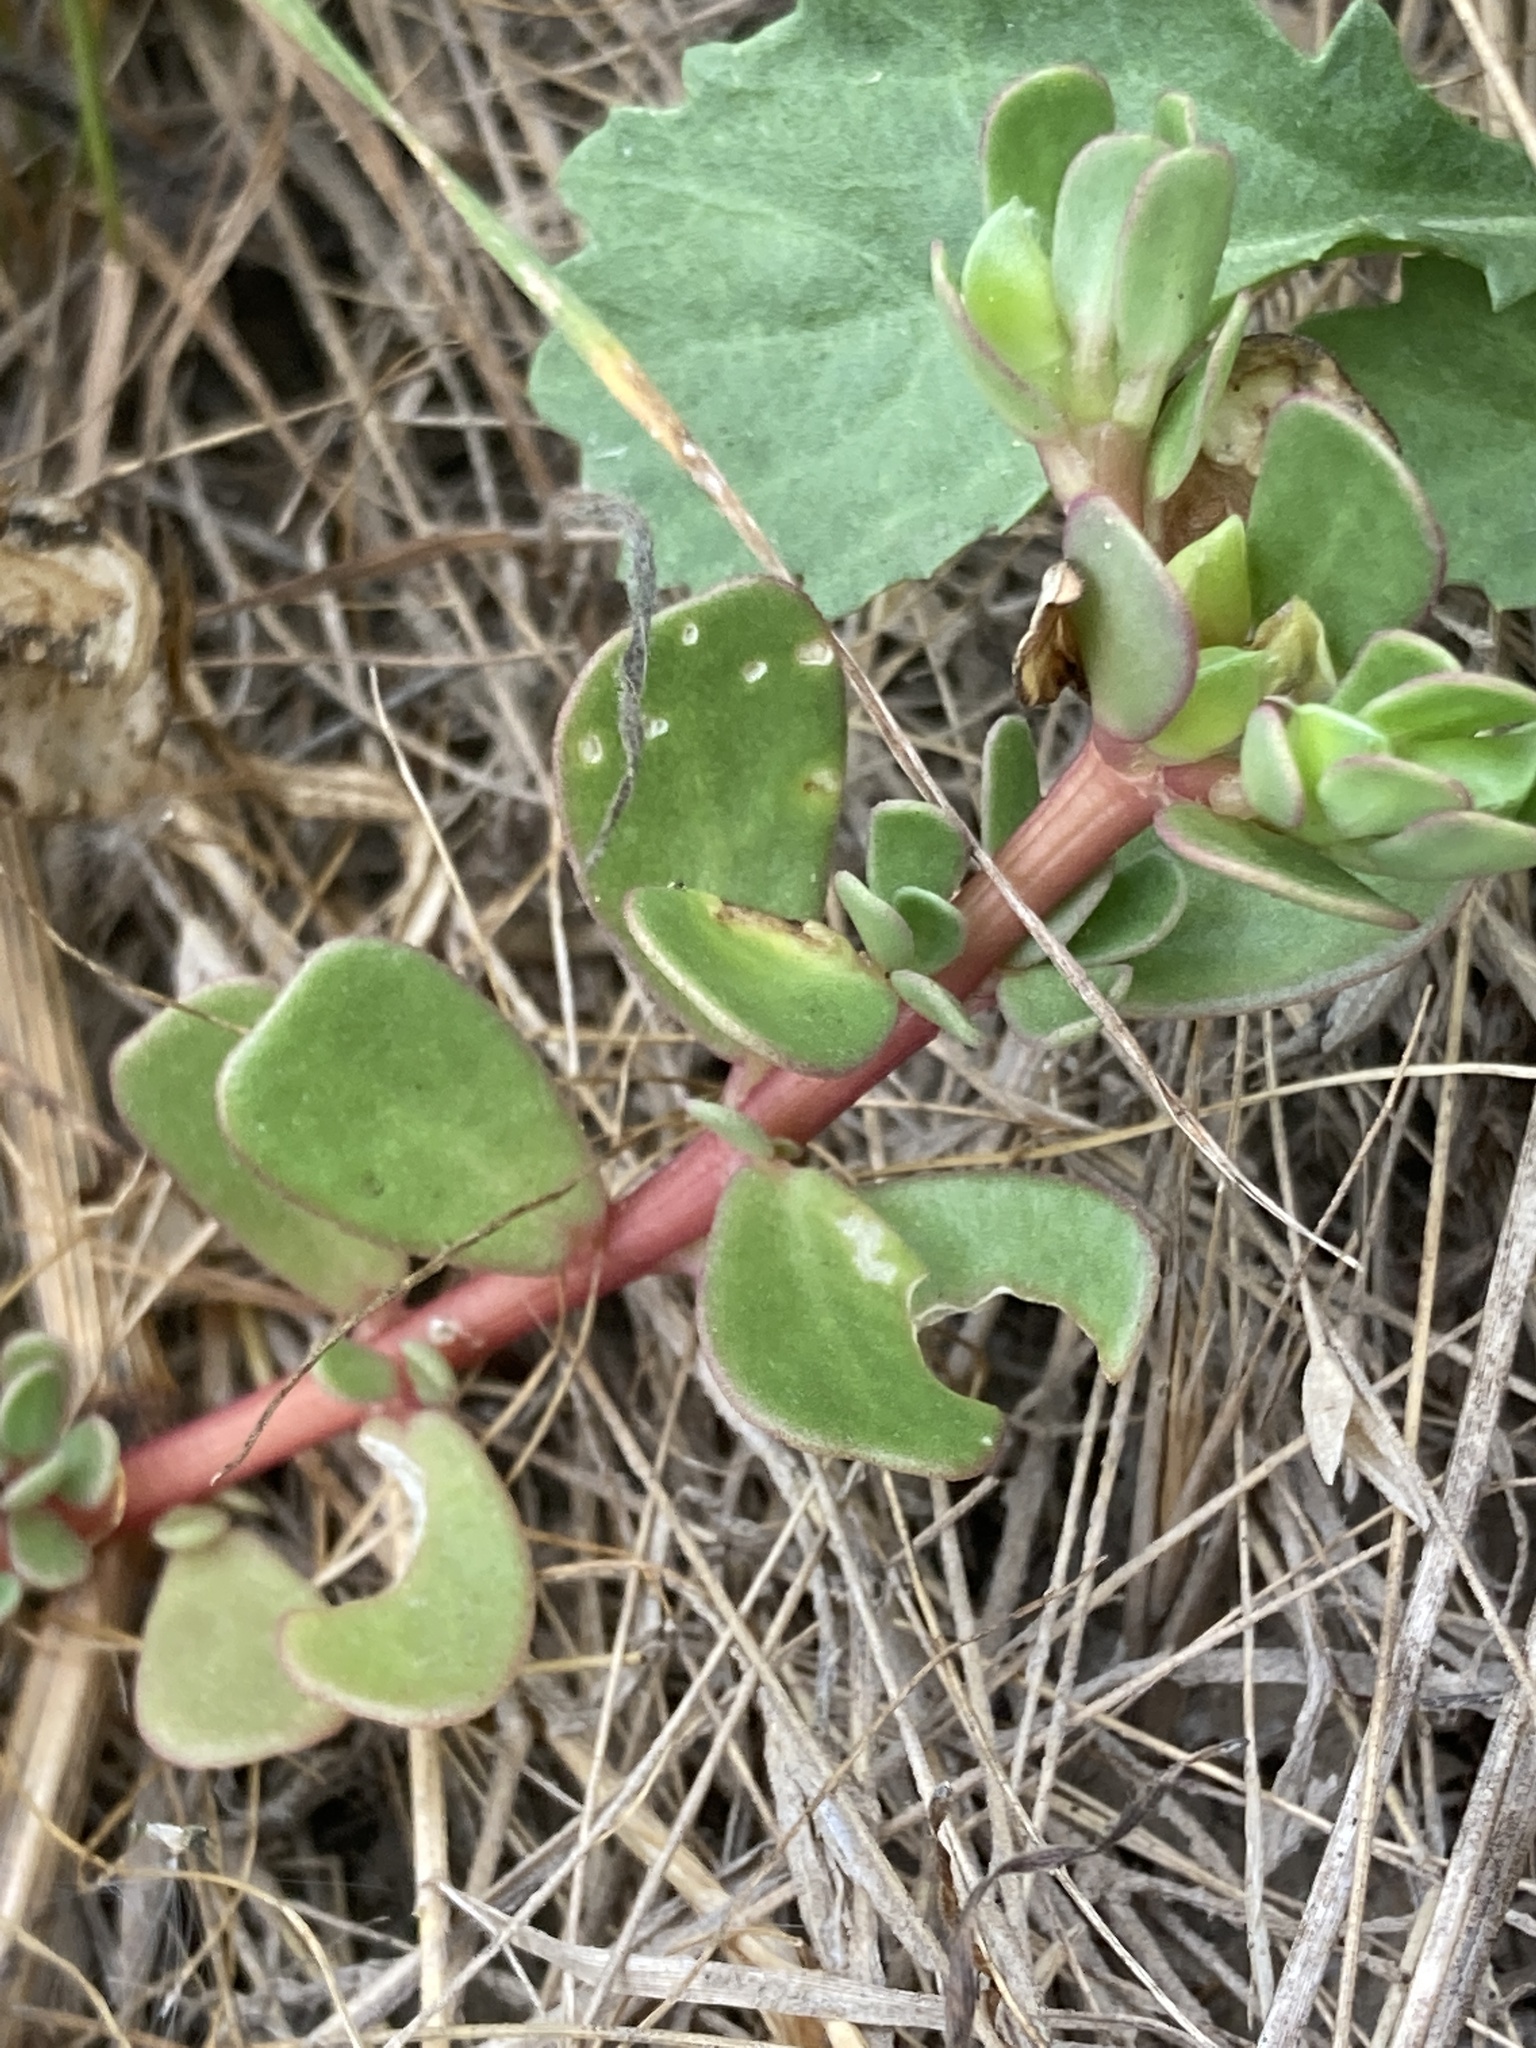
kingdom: Plantae
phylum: Tracheophyta
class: Magnoliopsida
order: Caryophyllales
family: Portulacaceae
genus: Portulaca
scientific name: Portulaca oleracea
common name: Common purslane
